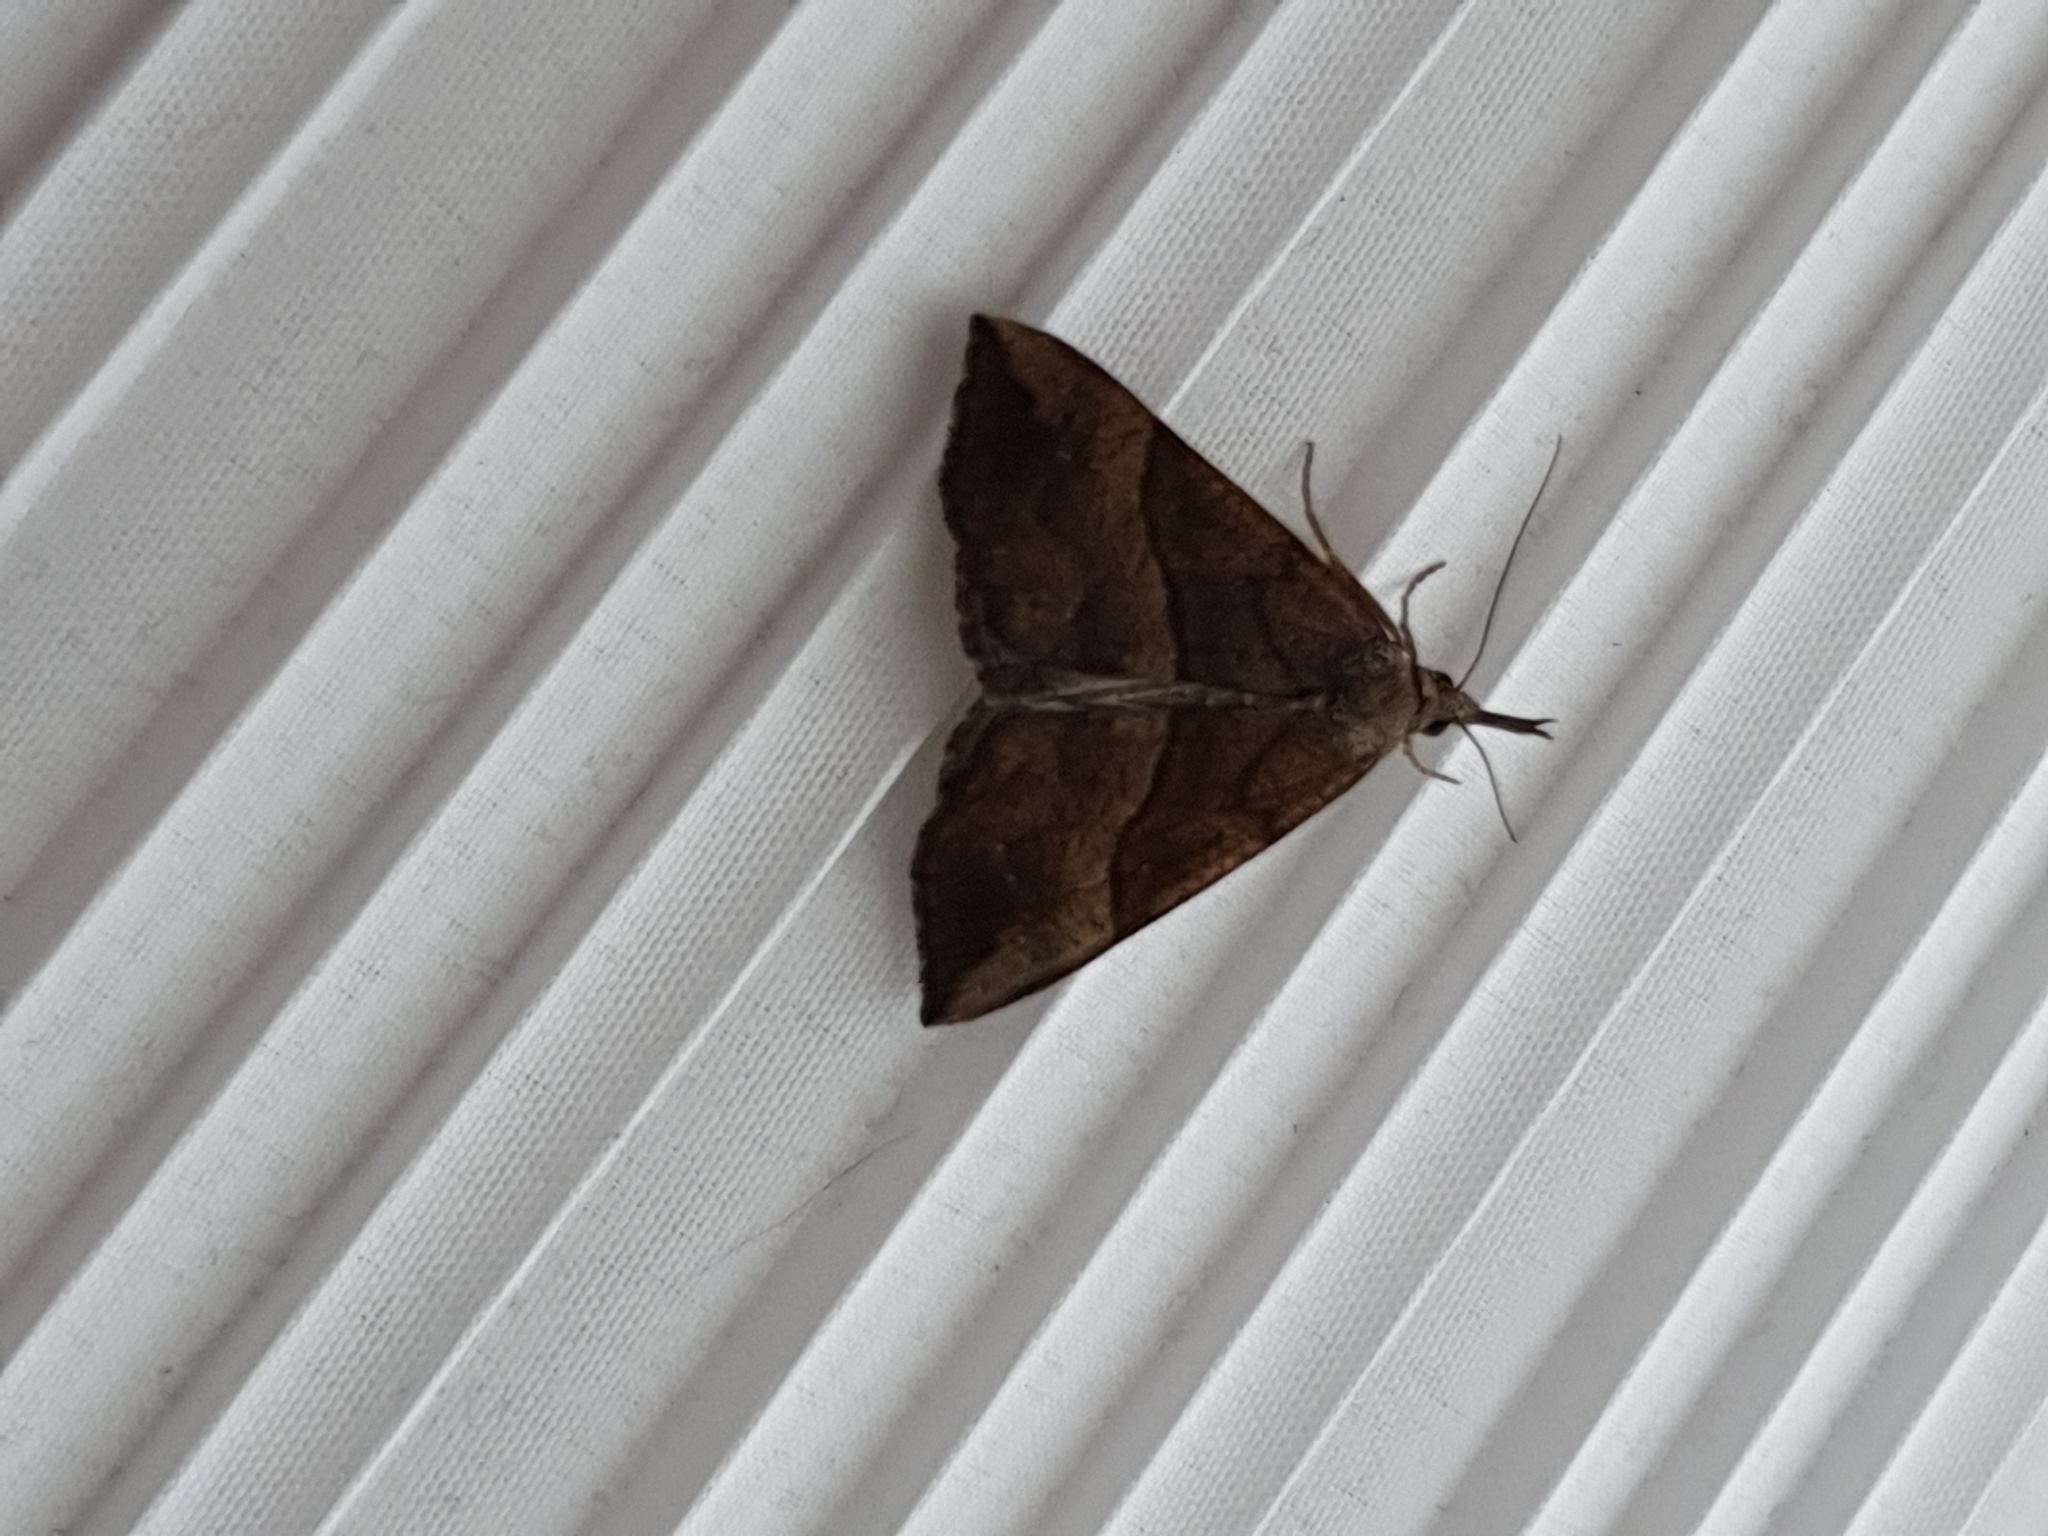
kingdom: Animalia
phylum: Arthropoda
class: Insecta
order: Lepidoptera
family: Erebidae
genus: Hypena
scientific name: Hypena proboscidalis
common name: Snout
